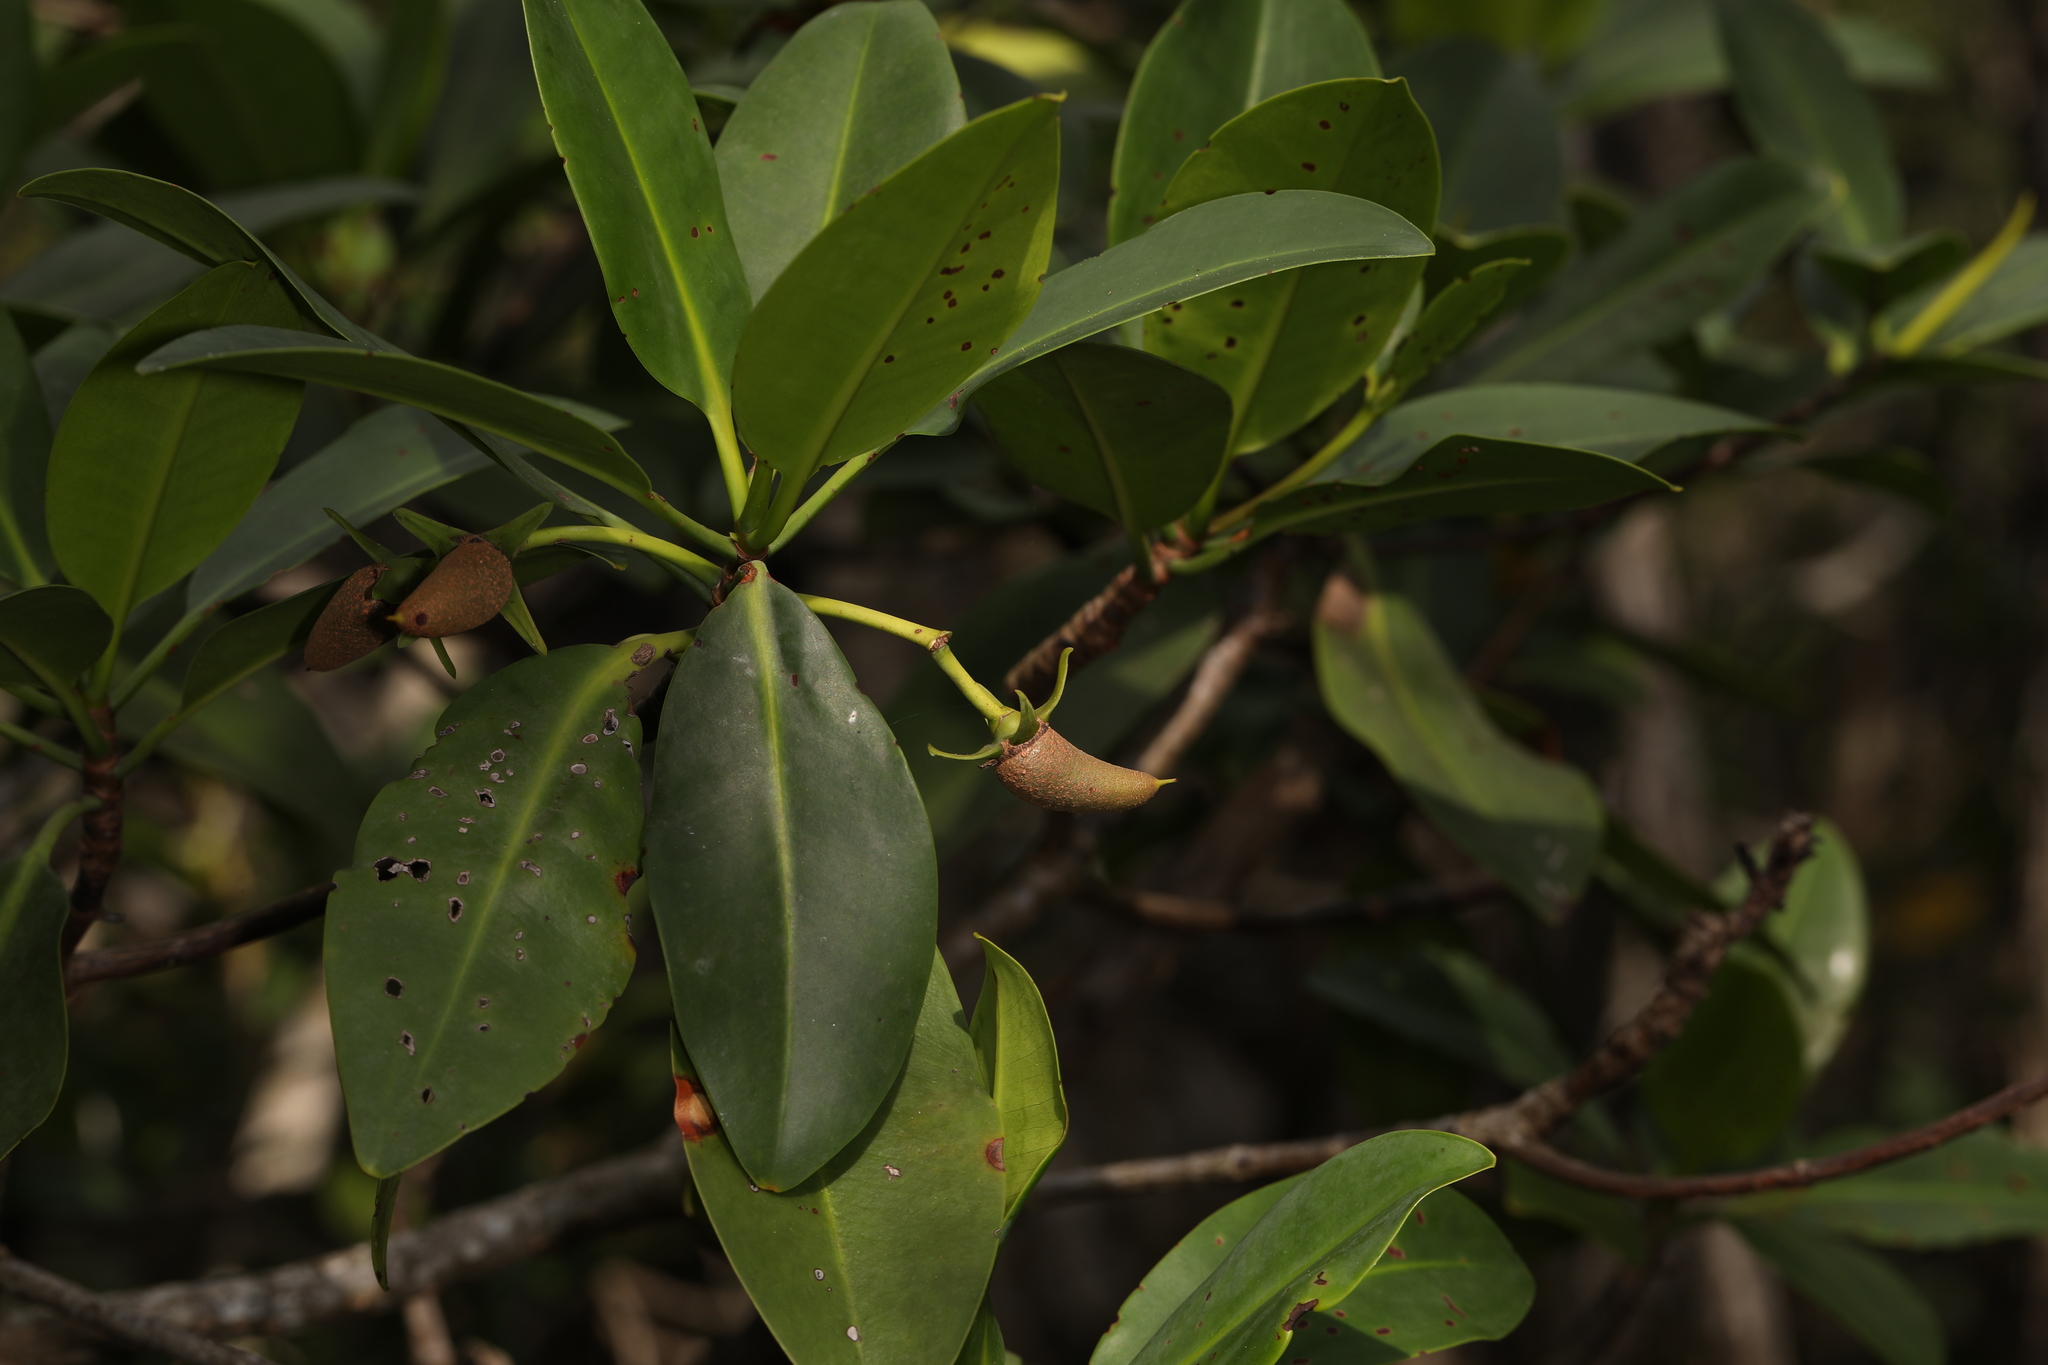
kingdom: Plantae
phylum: Tracheophyta
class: Magnoliopsida
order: Malpighiales
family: Rhizophoraceae
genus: Rhizophora
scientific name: Rhizophora mangle
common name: Red mangrove
